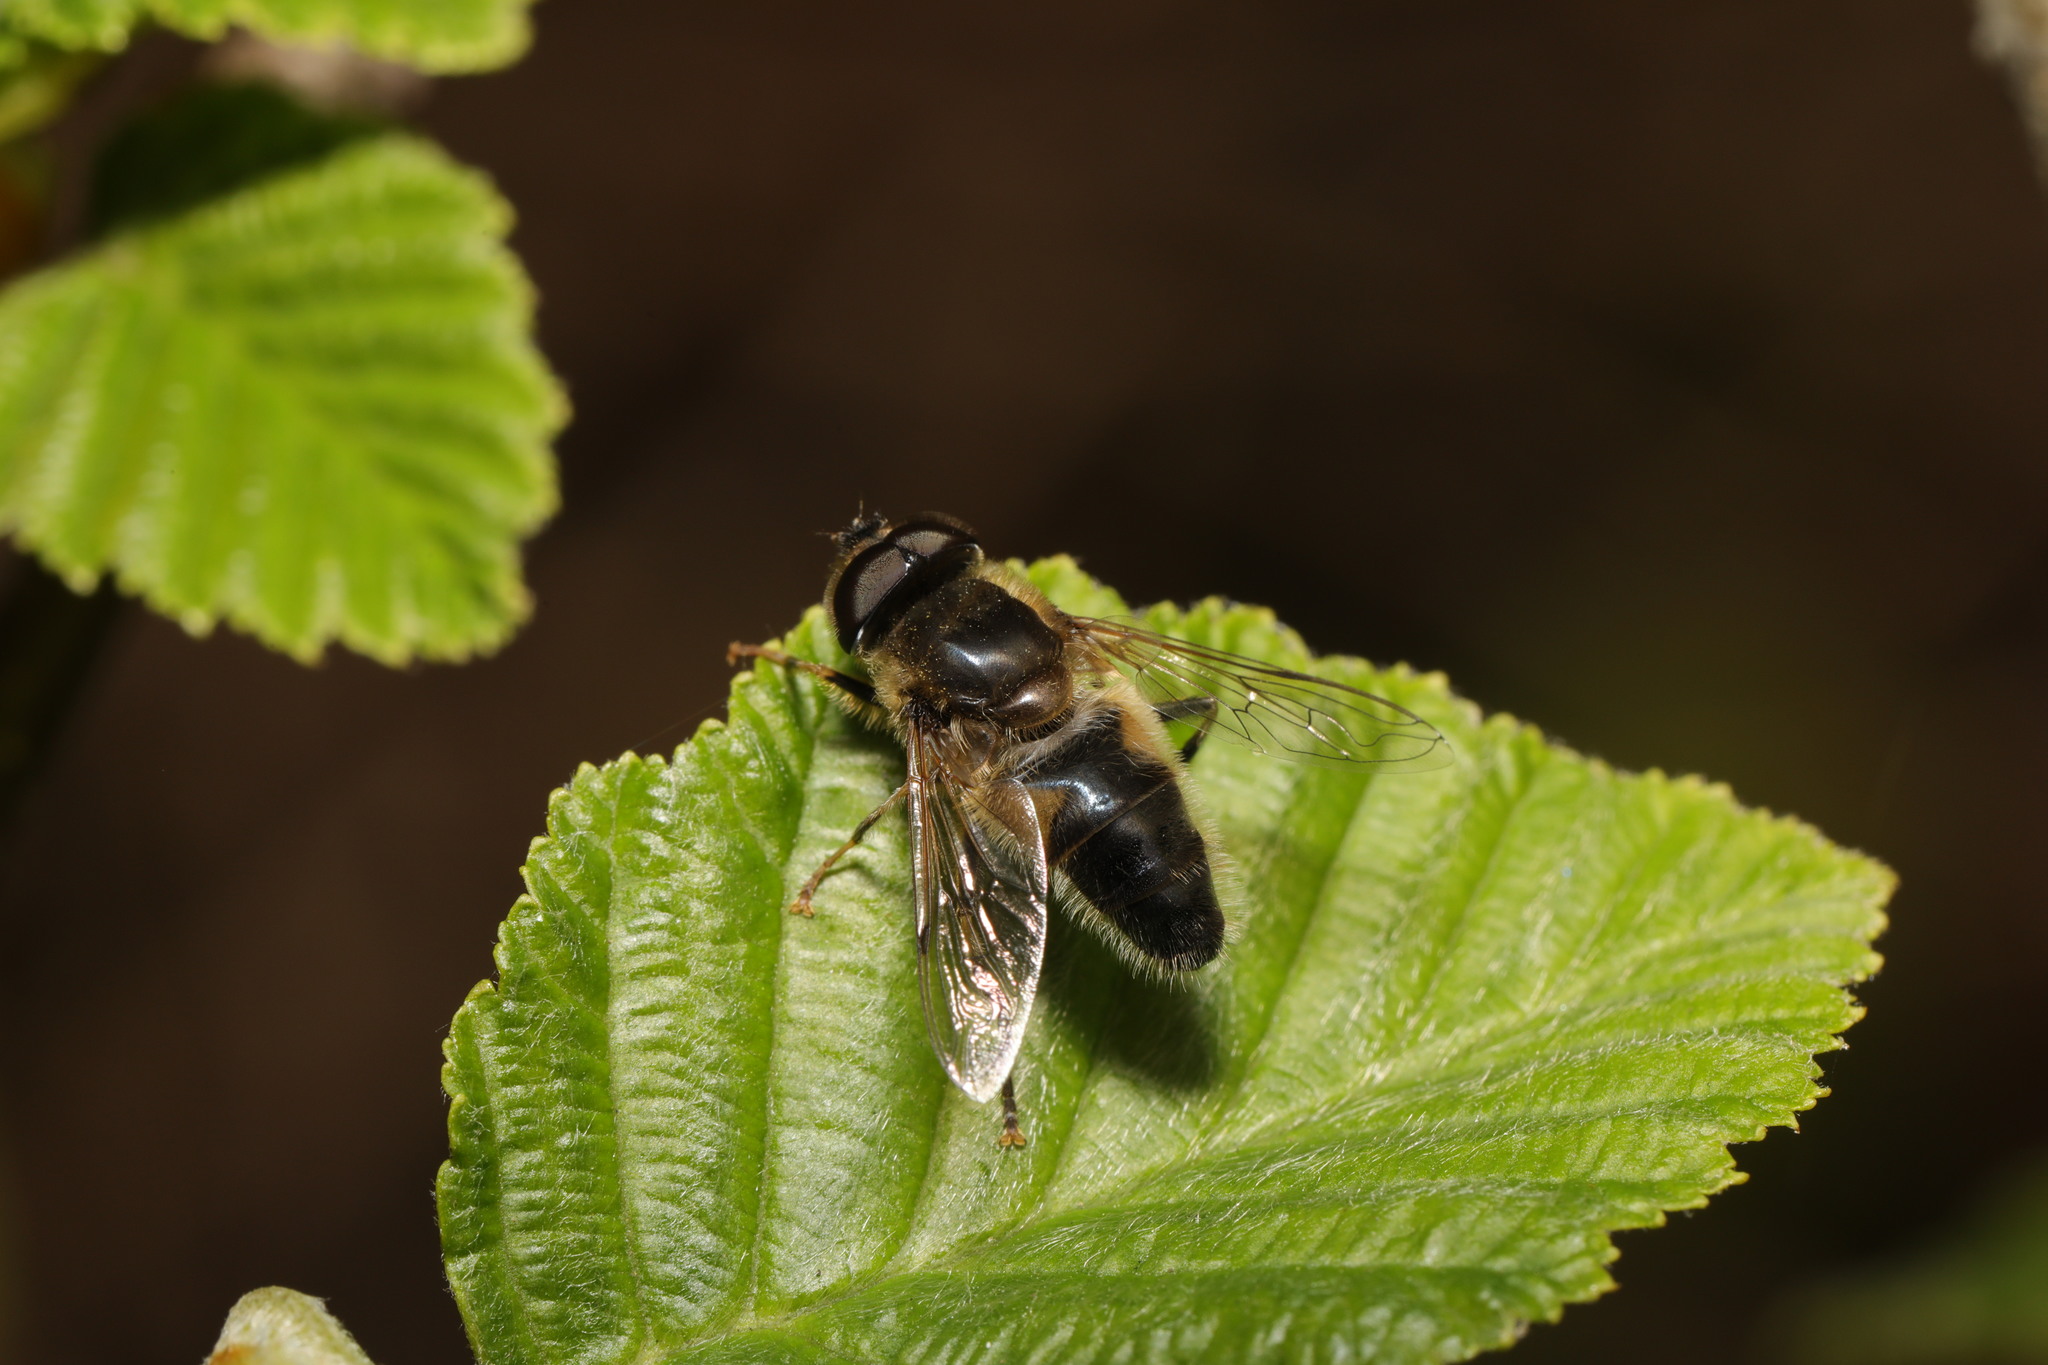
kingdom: Animalia
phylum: Arthropoda
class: Insecta
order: Diptera
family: Syrphidae
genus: Eristalis
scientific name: Eristalis pertinax
